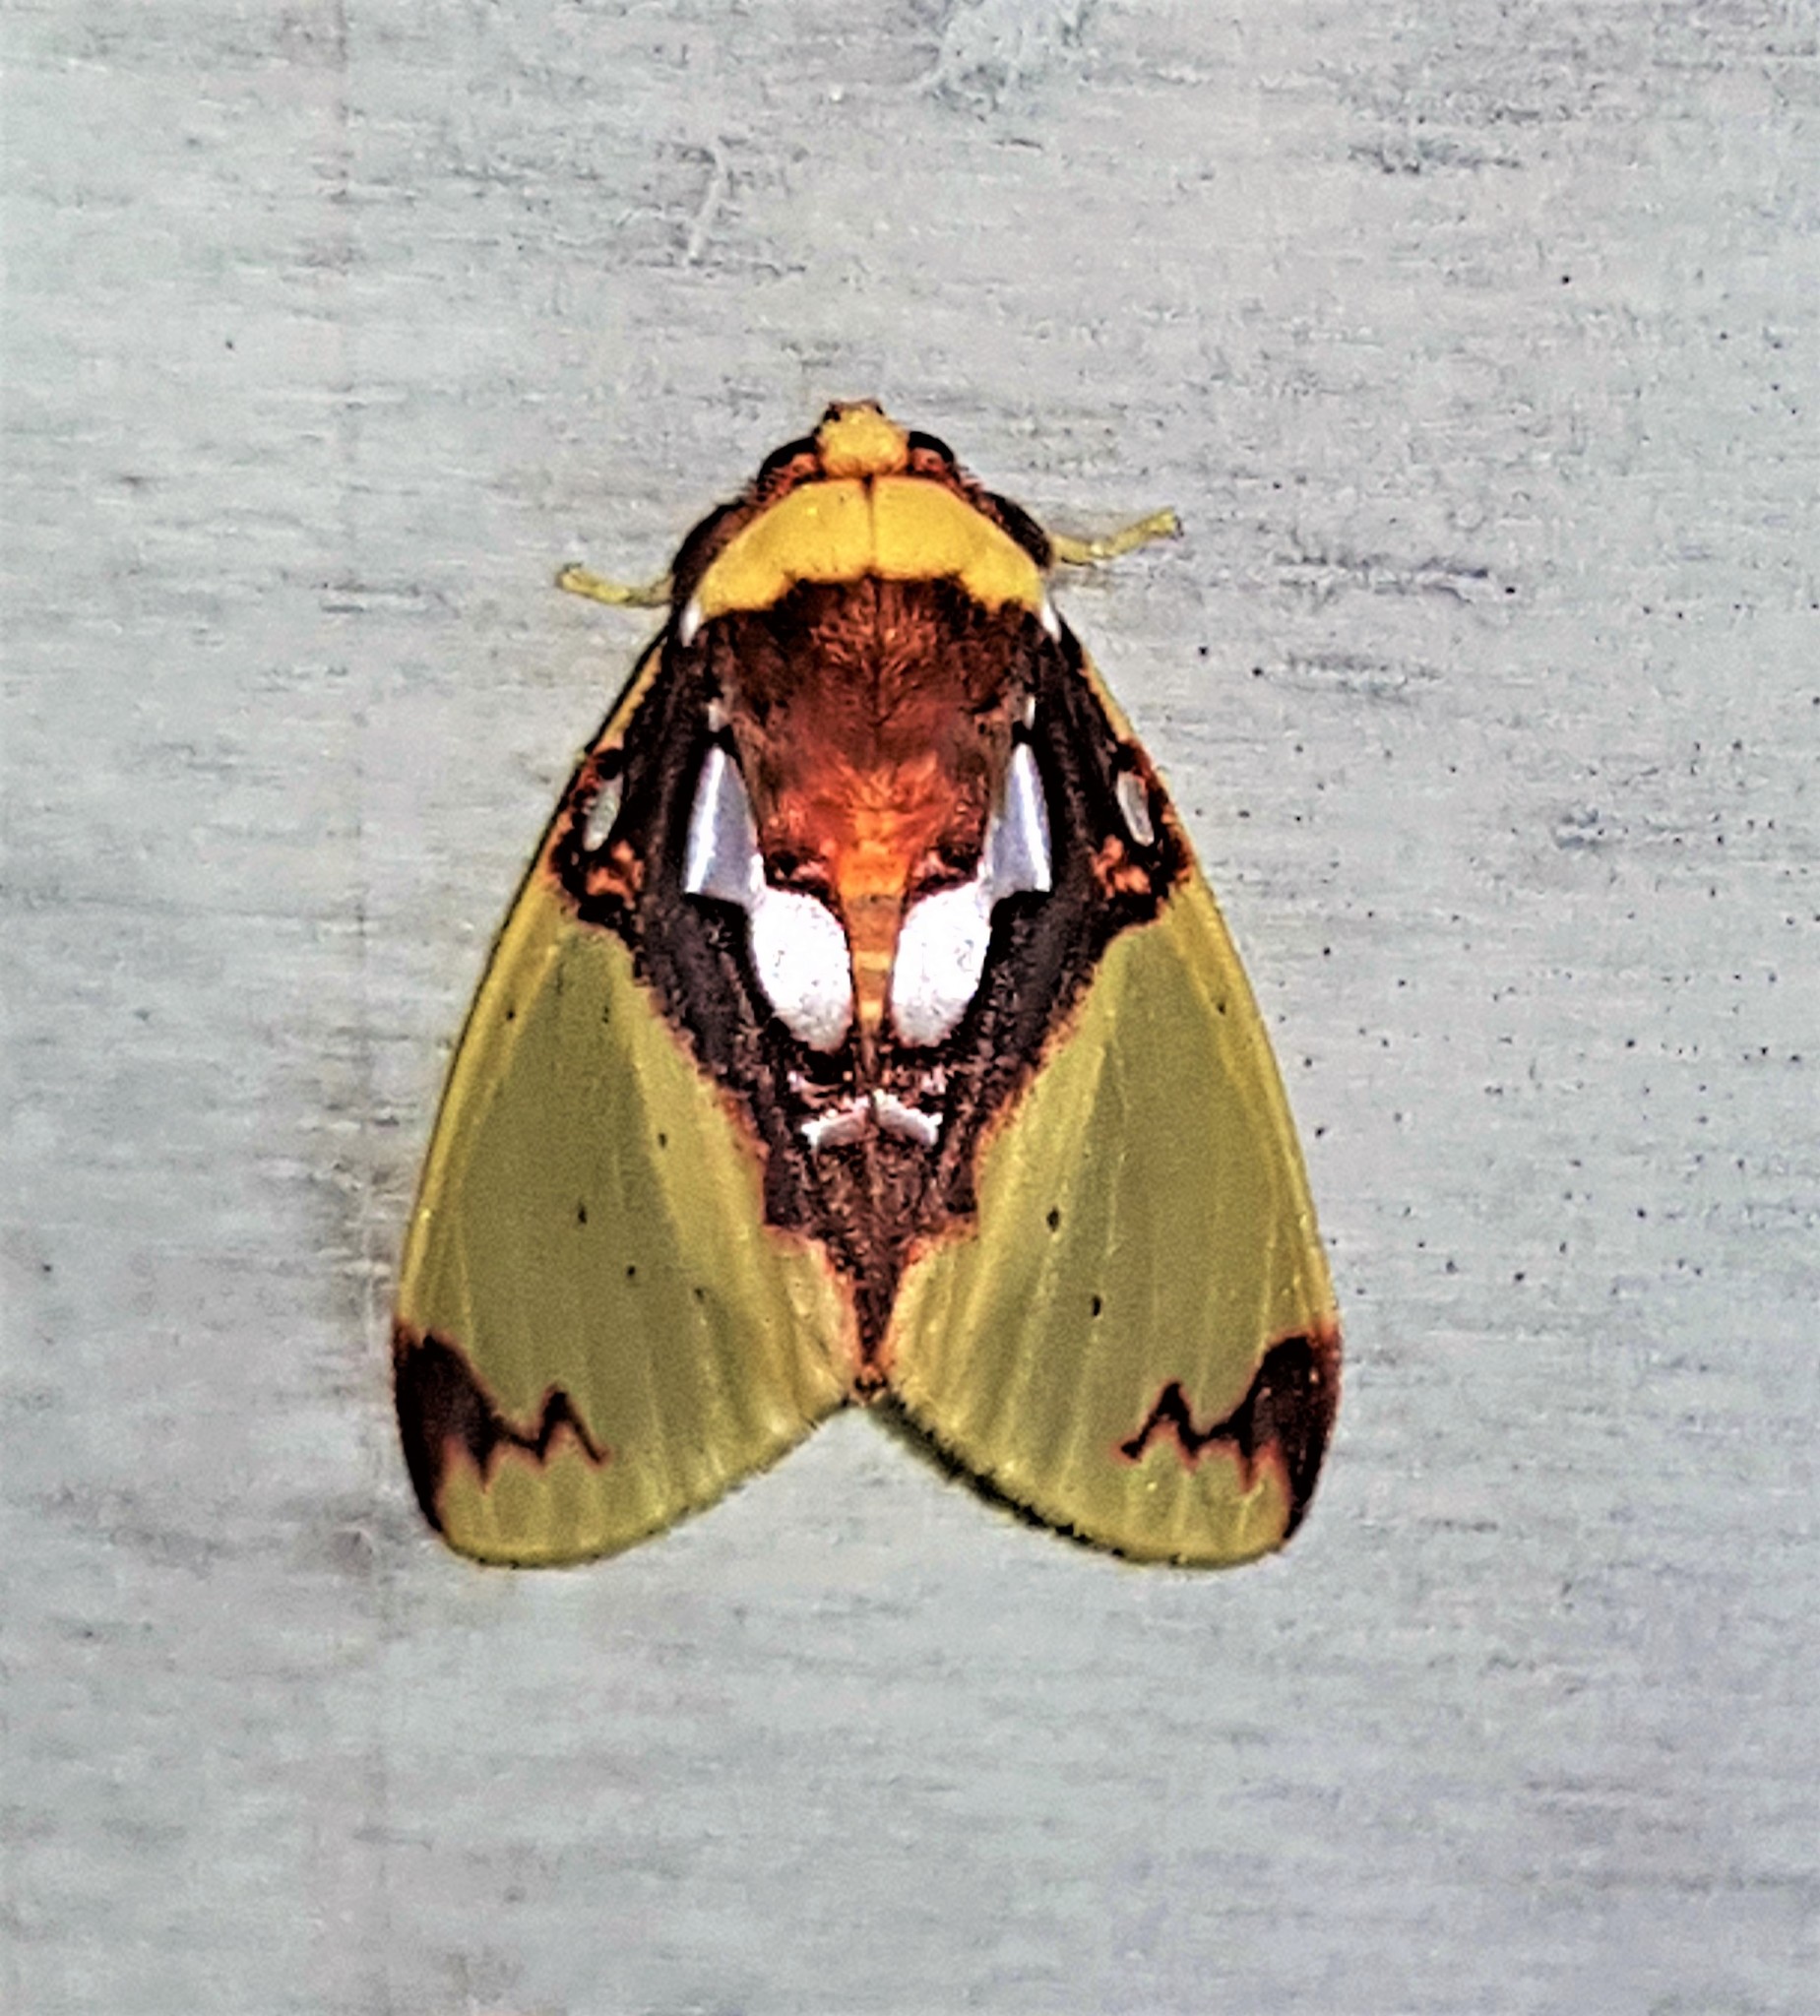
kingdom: Animalia
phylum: Arthropoda
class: Insecta
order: Lepidoptera
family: Erebidae
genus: Amaxia
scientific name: Amaxia chaon
